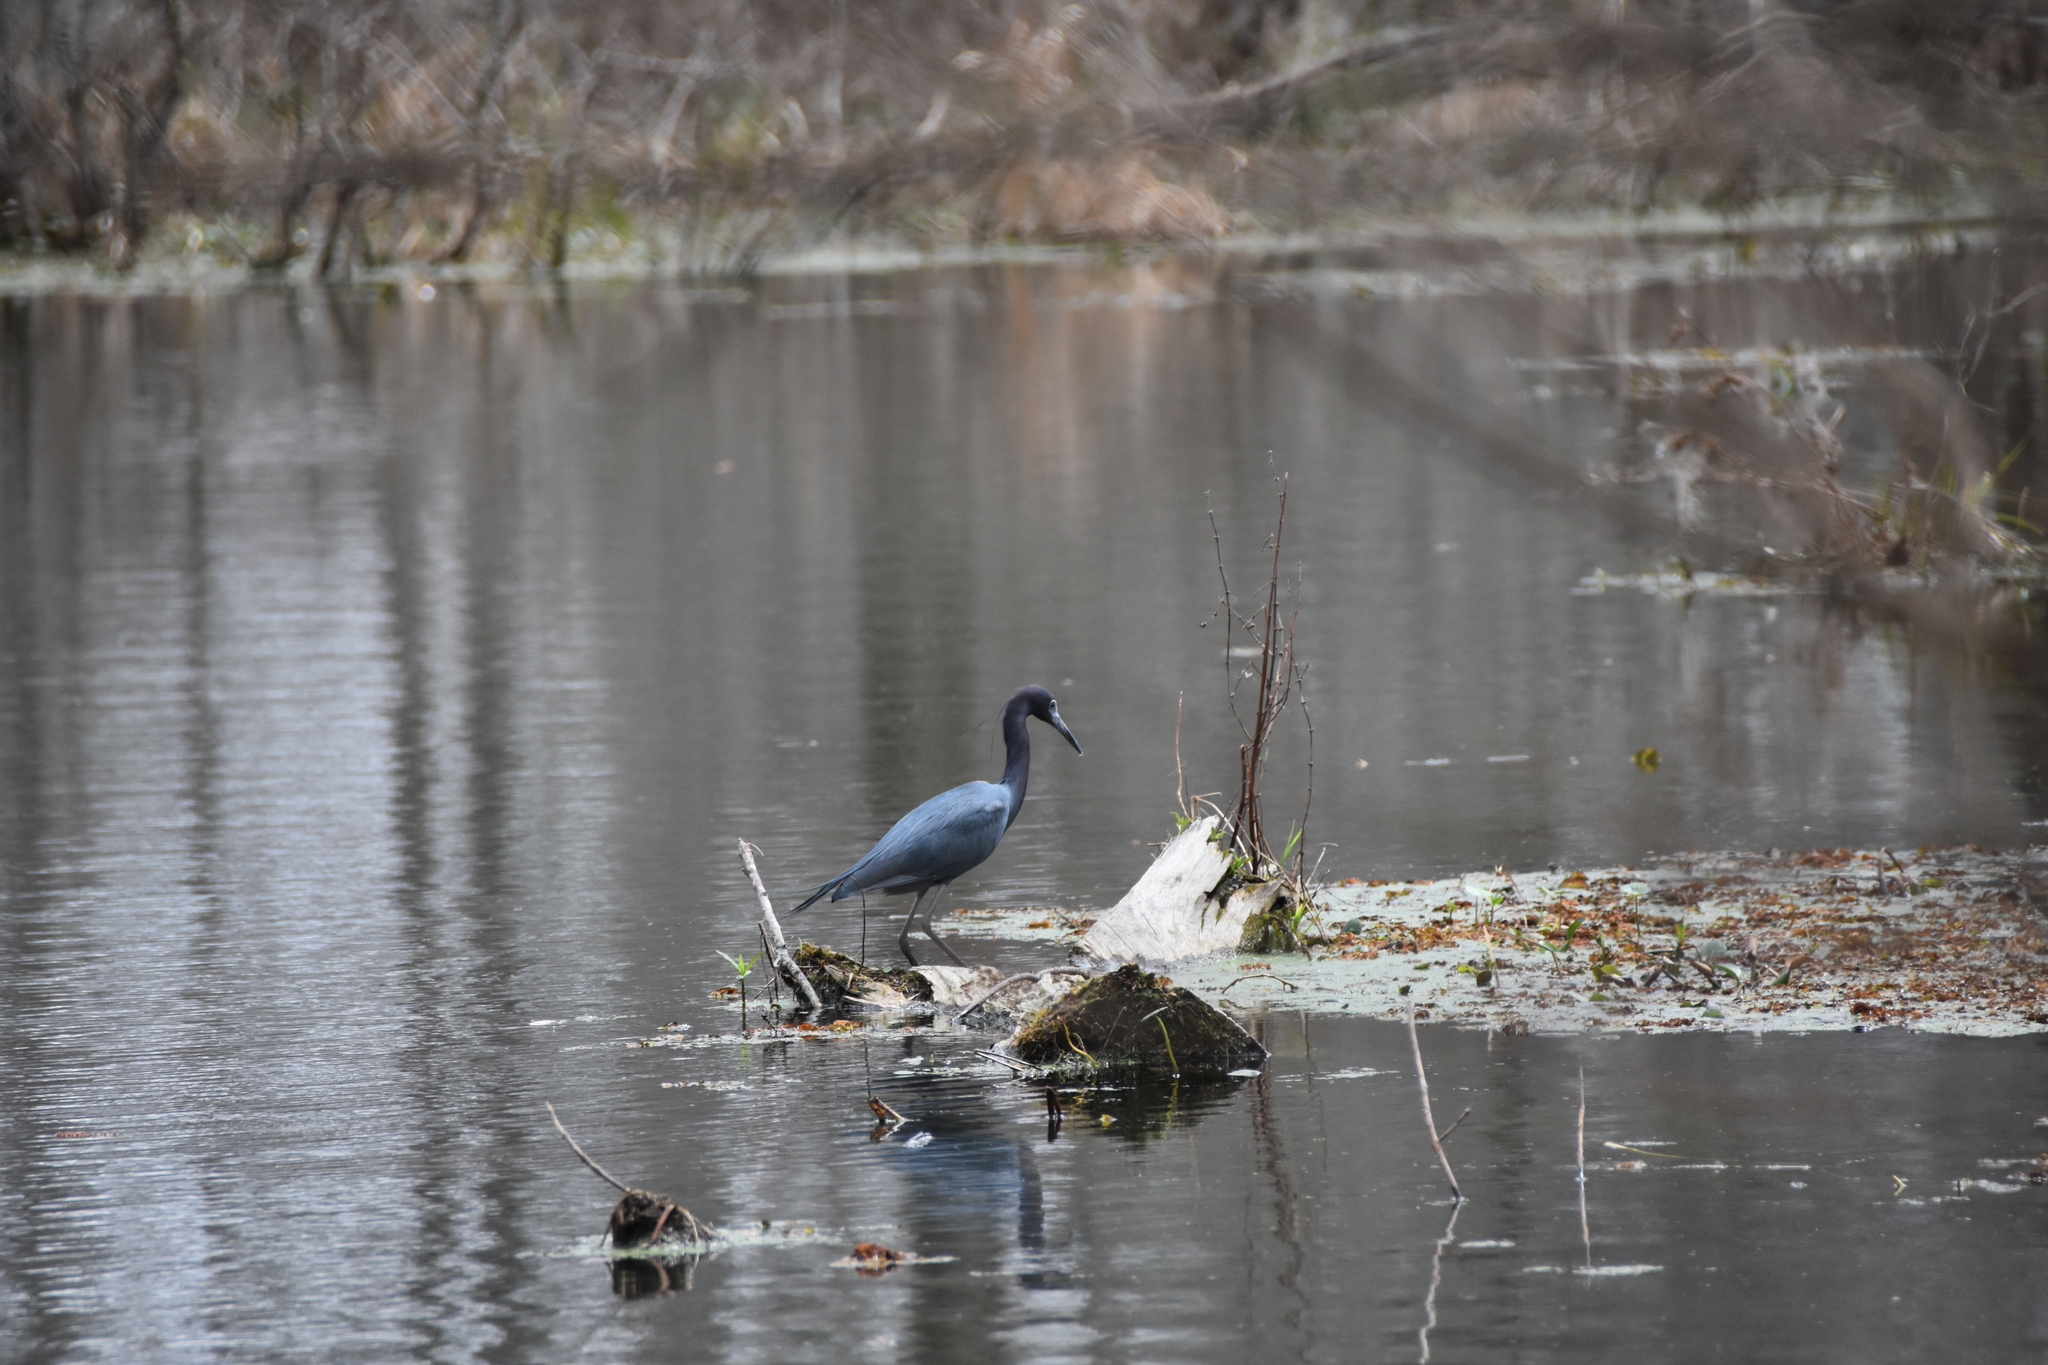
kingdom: Animalia
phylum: Chordata
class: Aves
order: Pelecaniformes
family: Ardeidae
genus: Egretta
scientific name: Egretta caerulea
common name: Little blue heron
